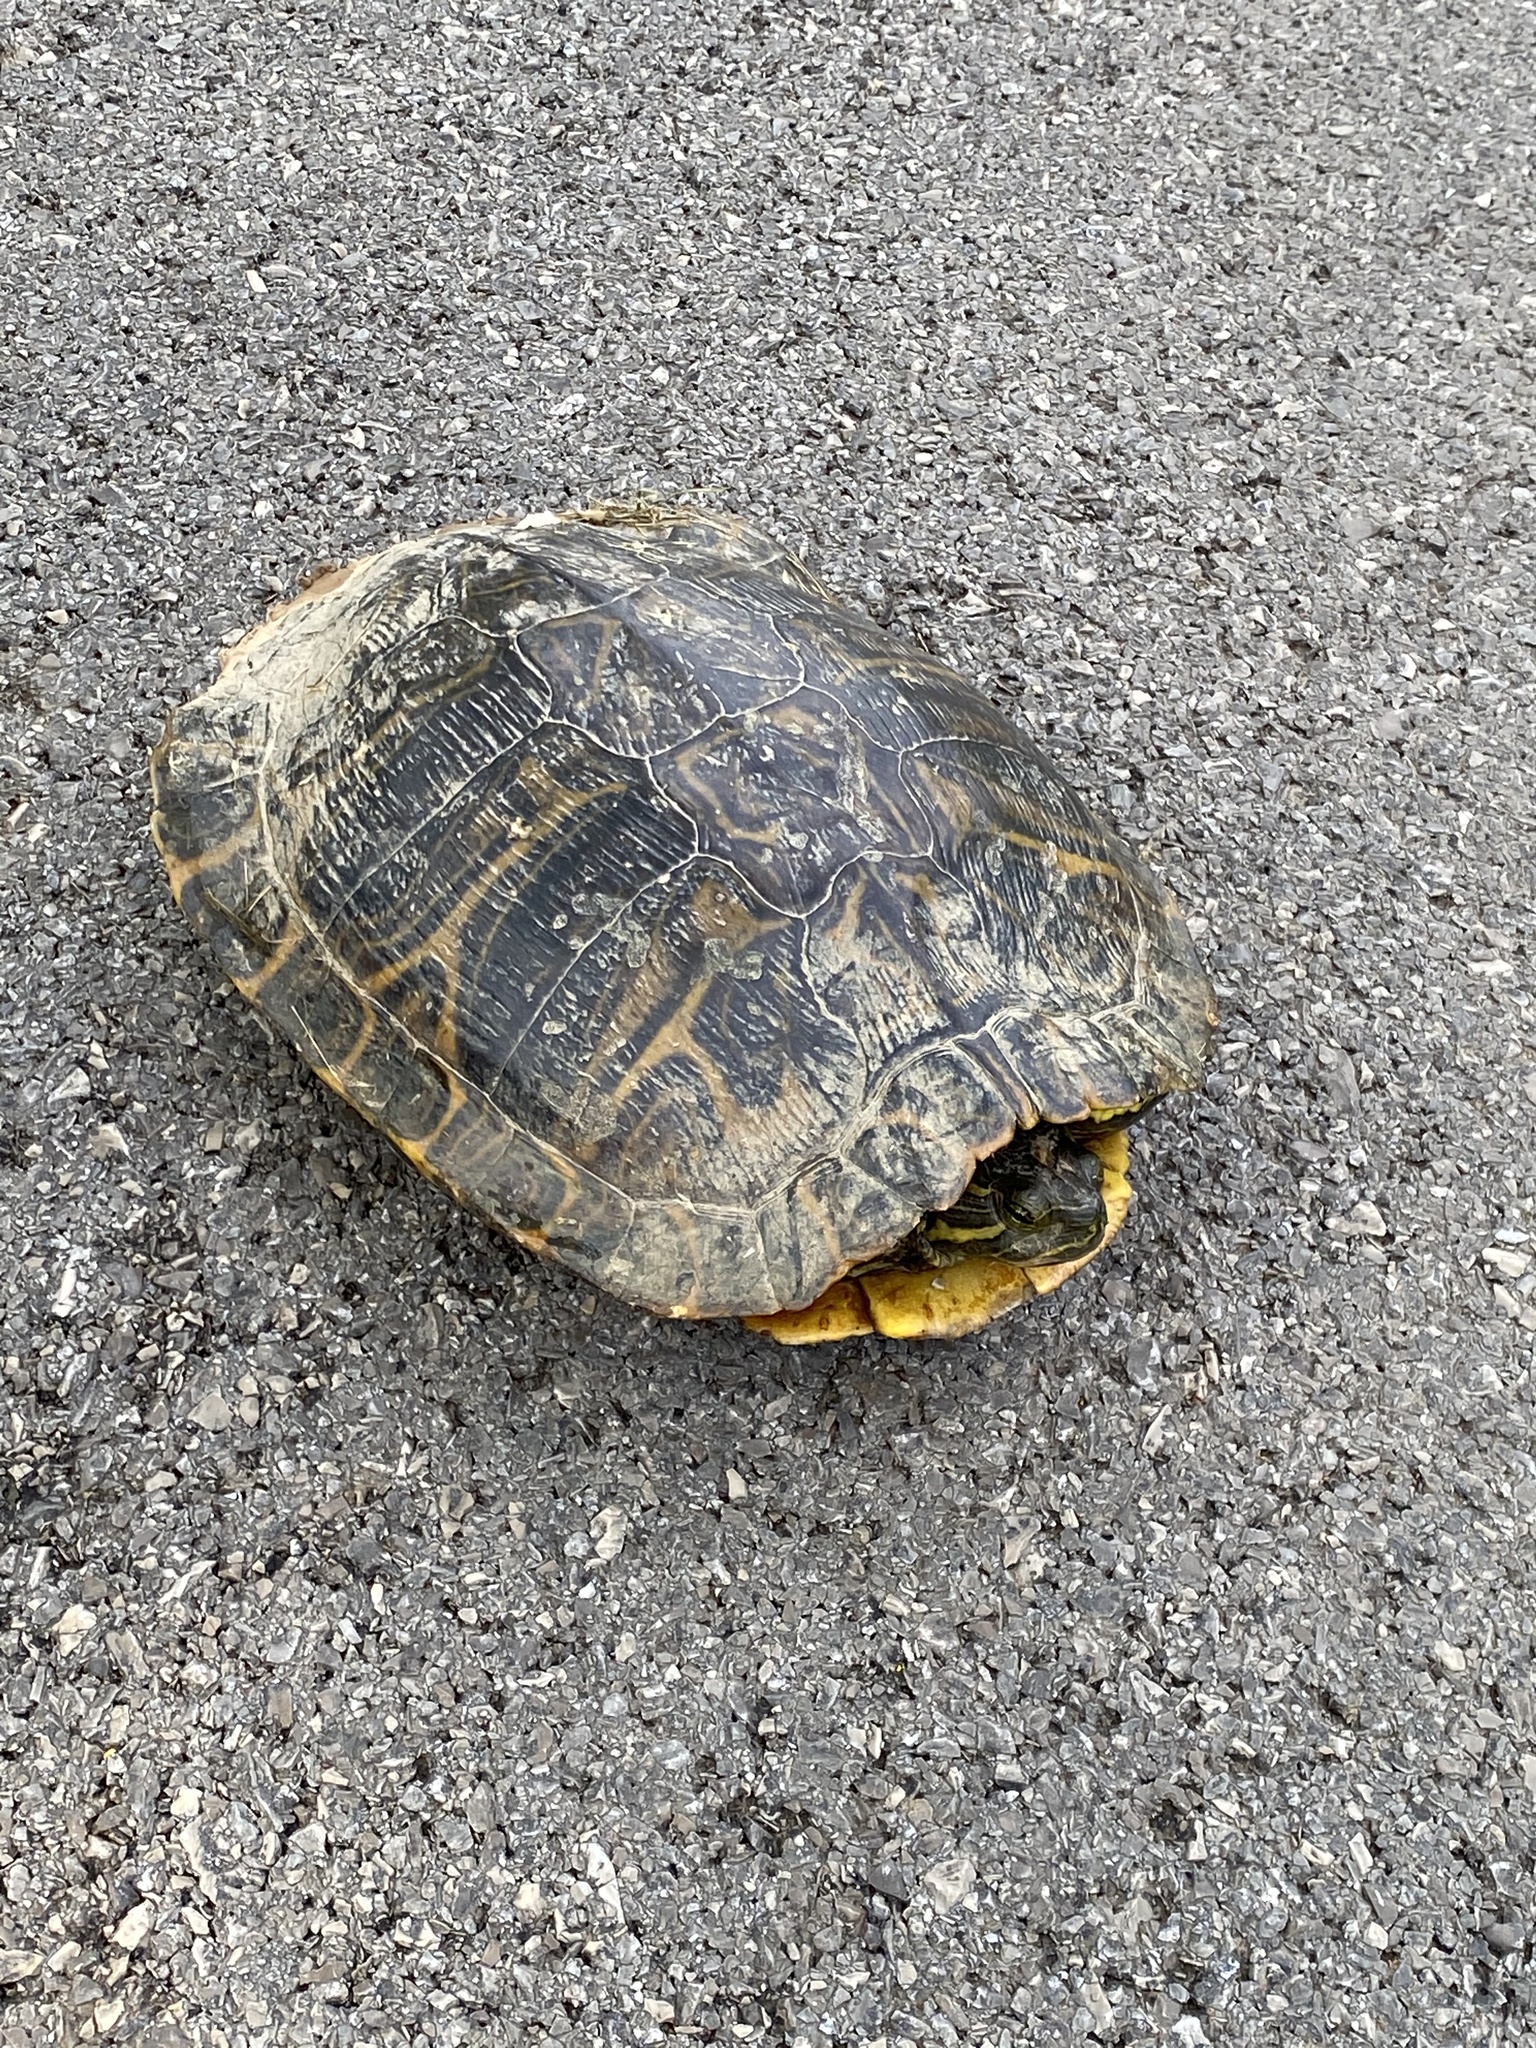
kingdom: Animalia
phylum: Chordata
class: Testudines
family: Emydidae
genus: Trachemys
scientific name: Trachemys scripta
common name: Slider
